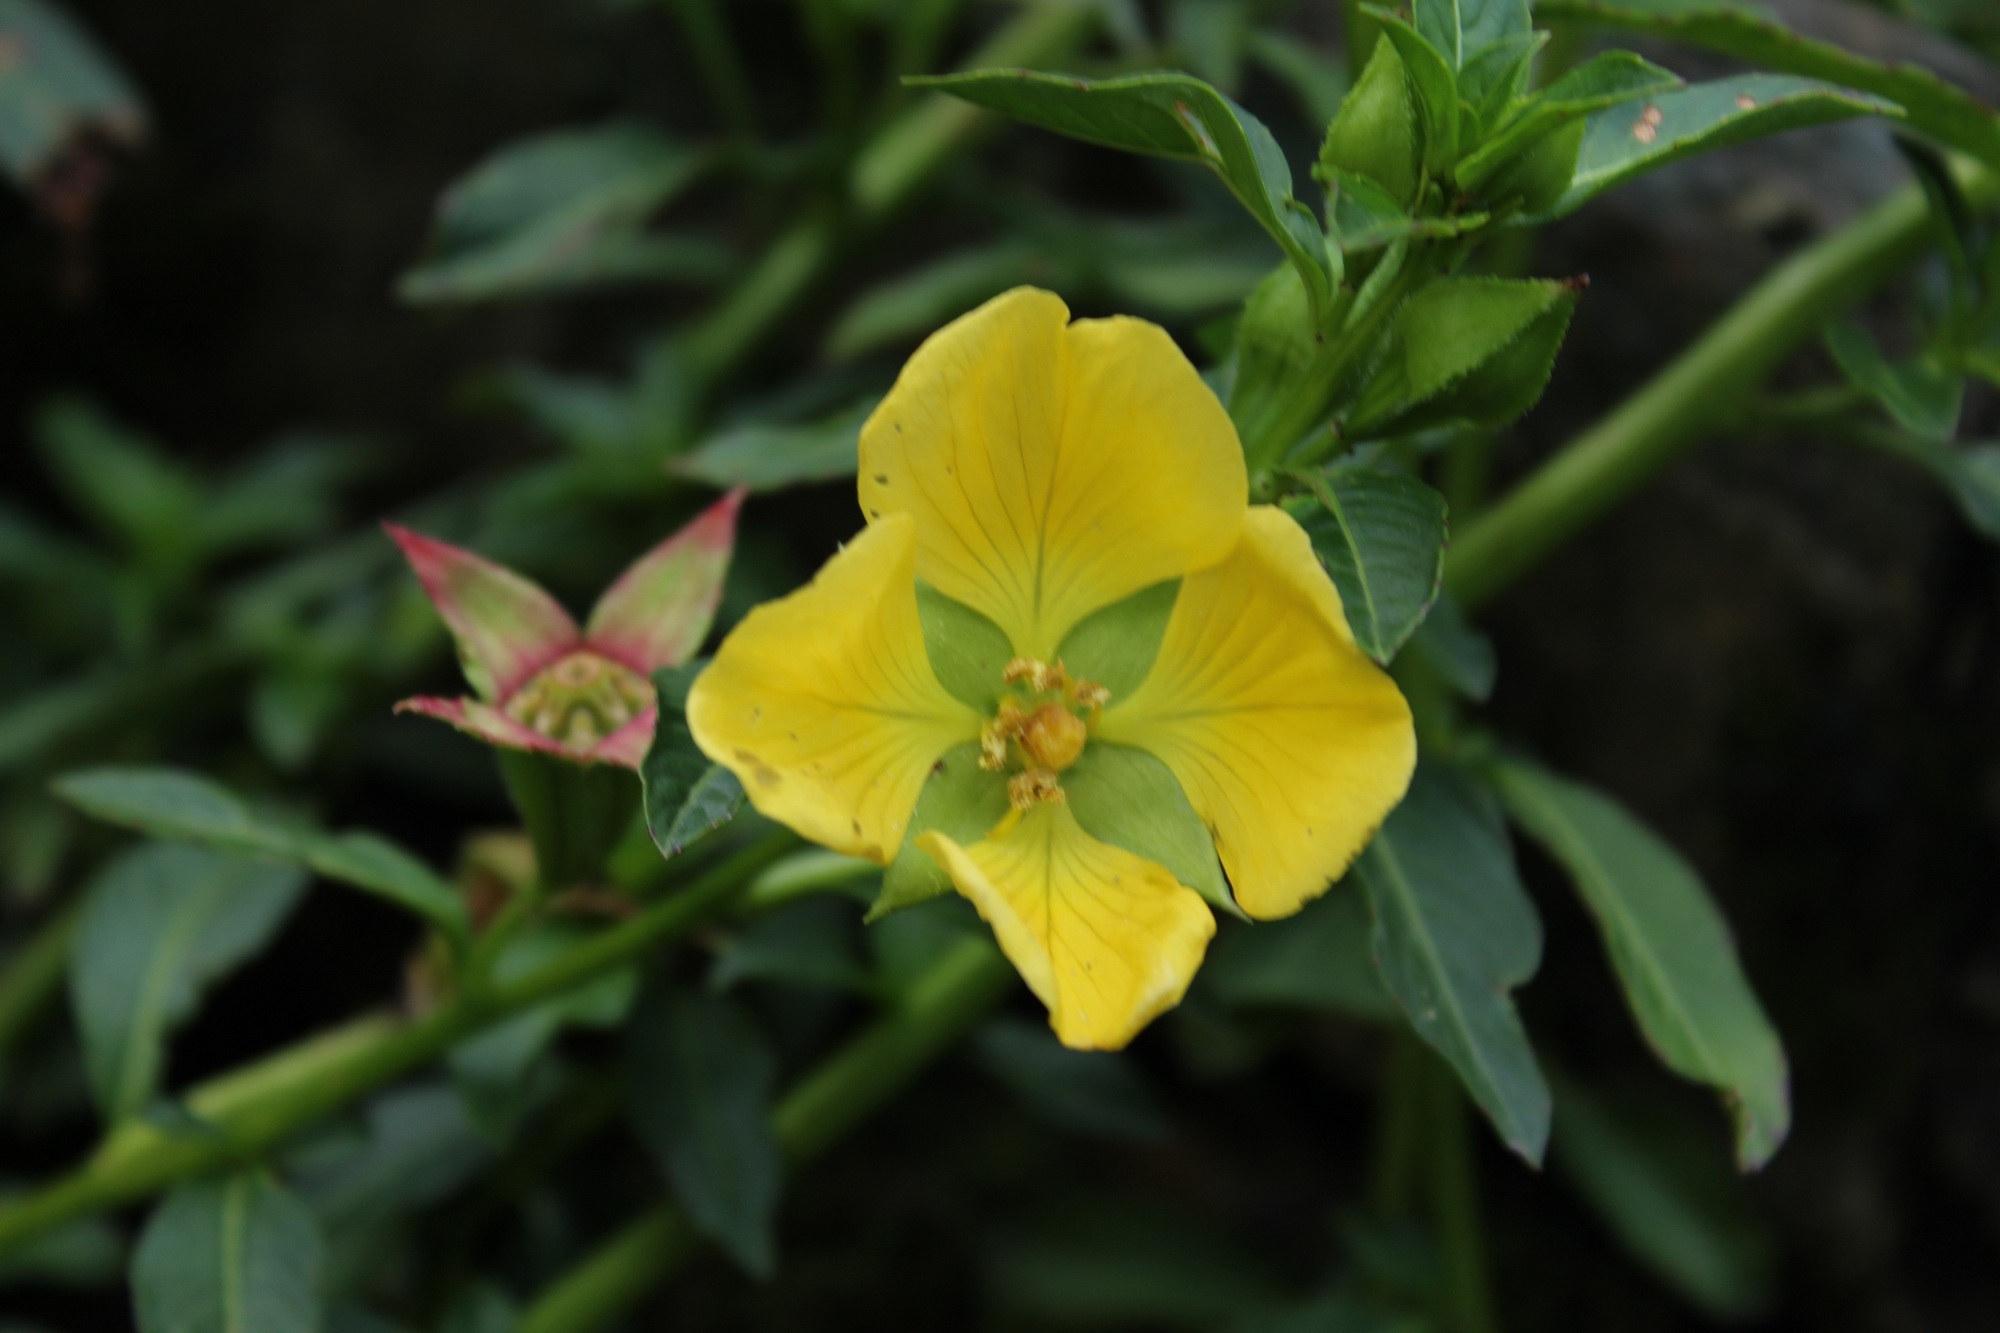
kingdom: Plantae
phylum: Tracheophyta
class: Magnoliopsida
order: Myrtales
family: Onagraceae
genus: Ludwigia
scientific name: Ludwigia peruviana
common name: Peruvian primrose-willow
